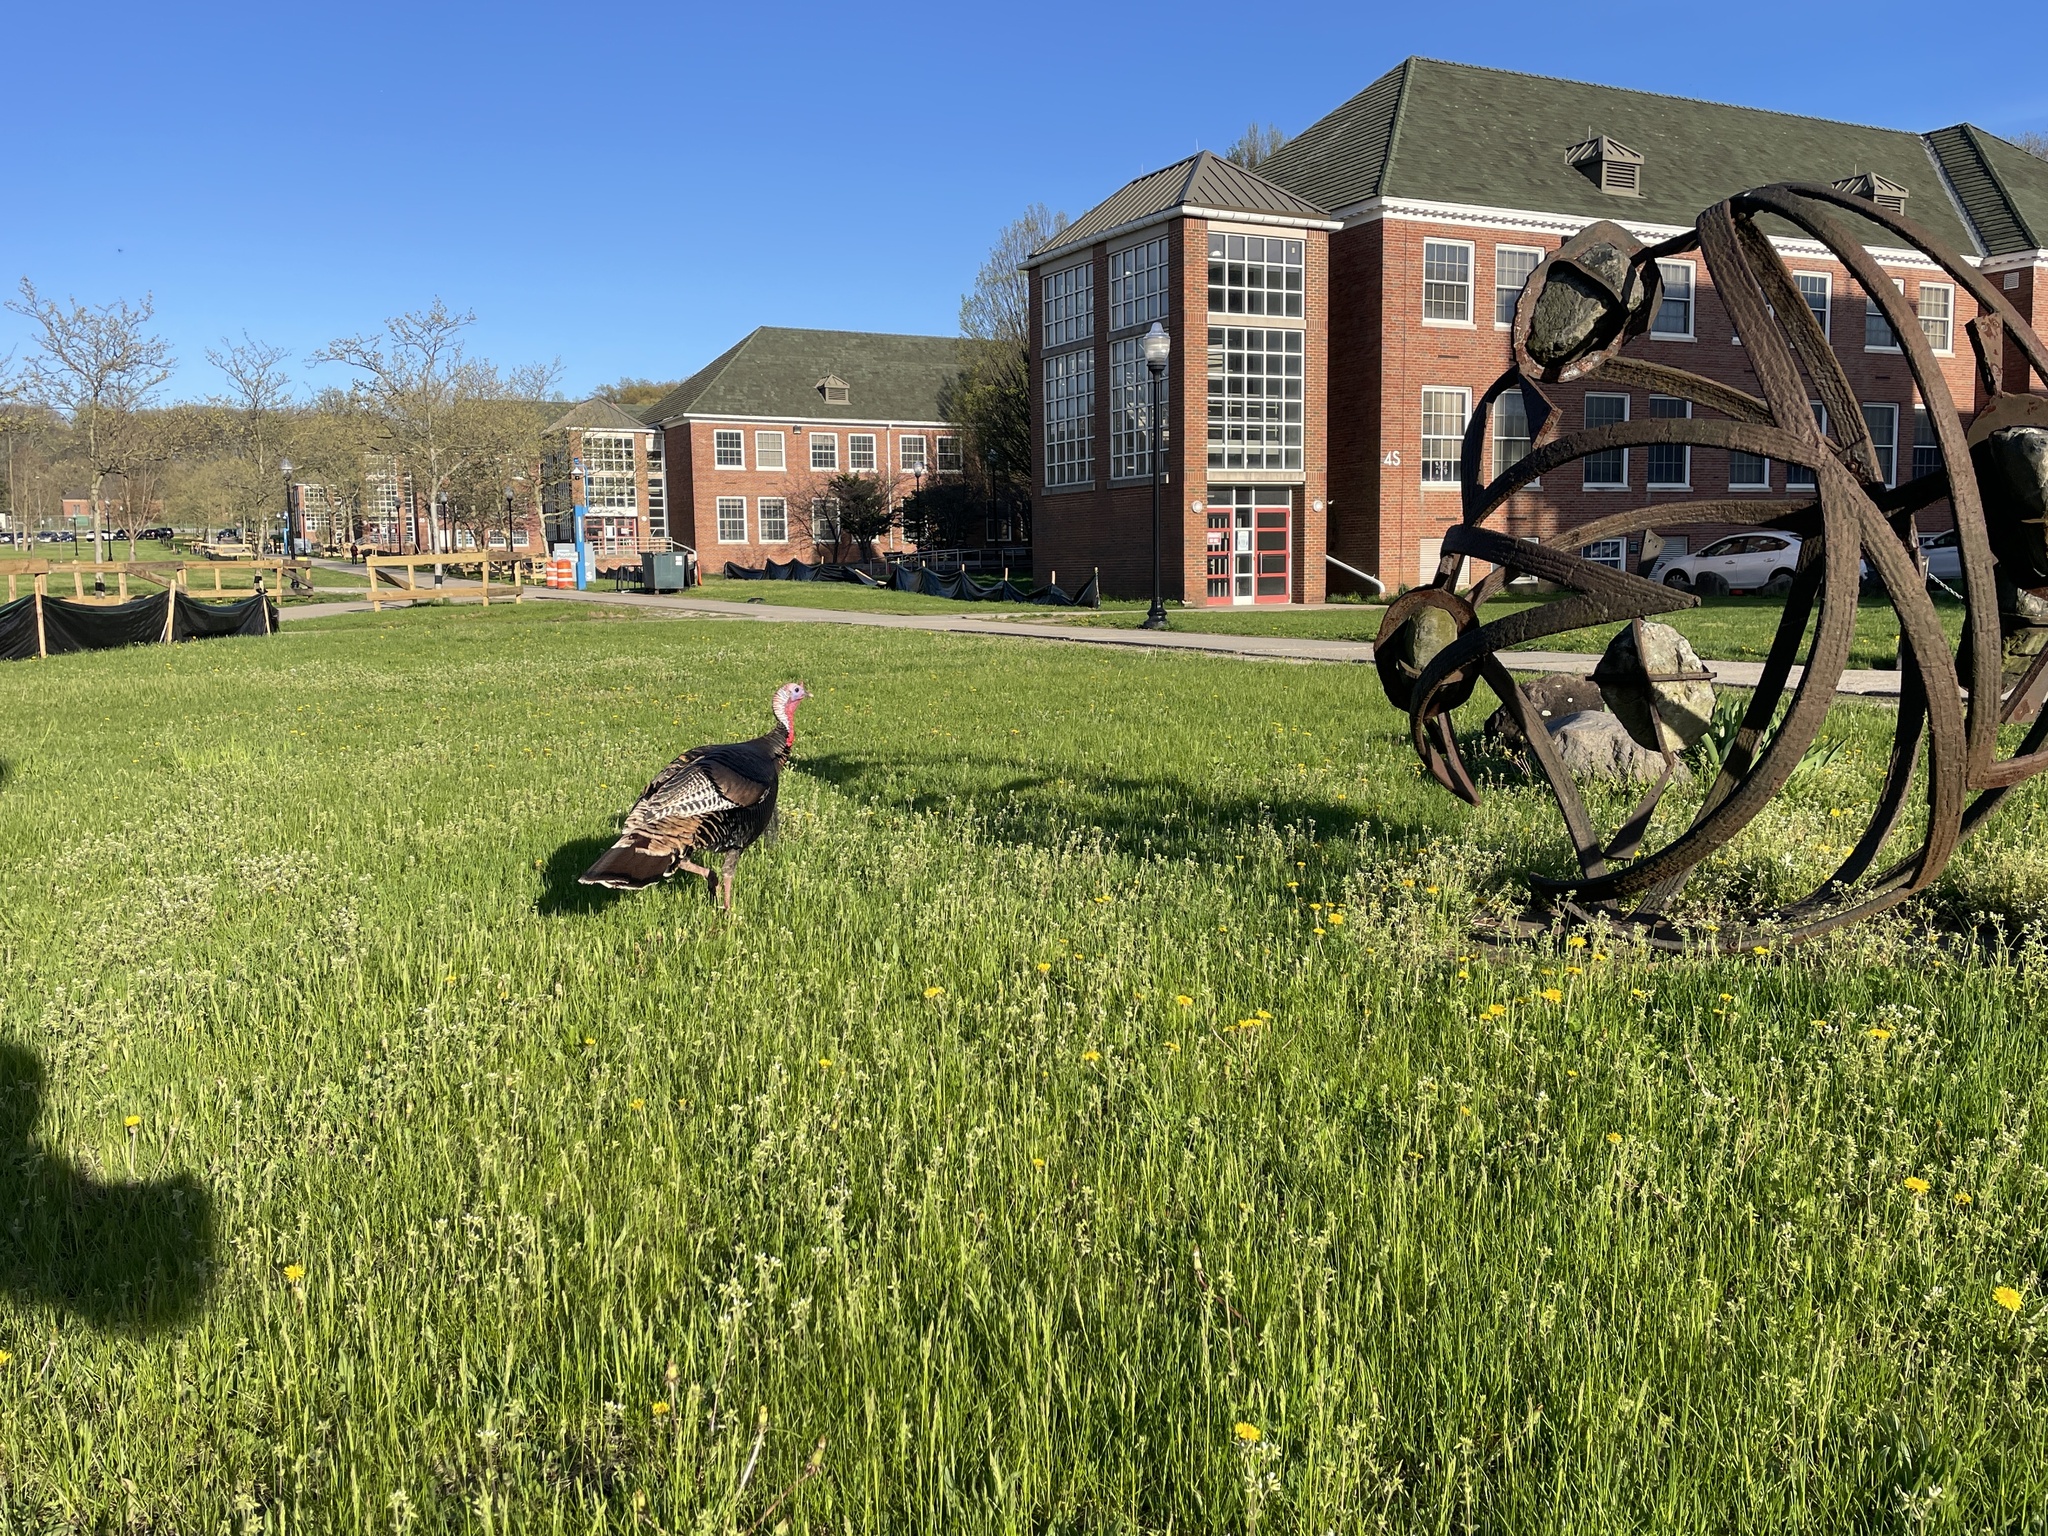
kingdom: Animalia
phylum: Chordata
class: Aves
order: Galliformes
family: Phasianidae
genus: Meleagris
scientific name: Meleagris gallopavo
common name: Wild turkey
